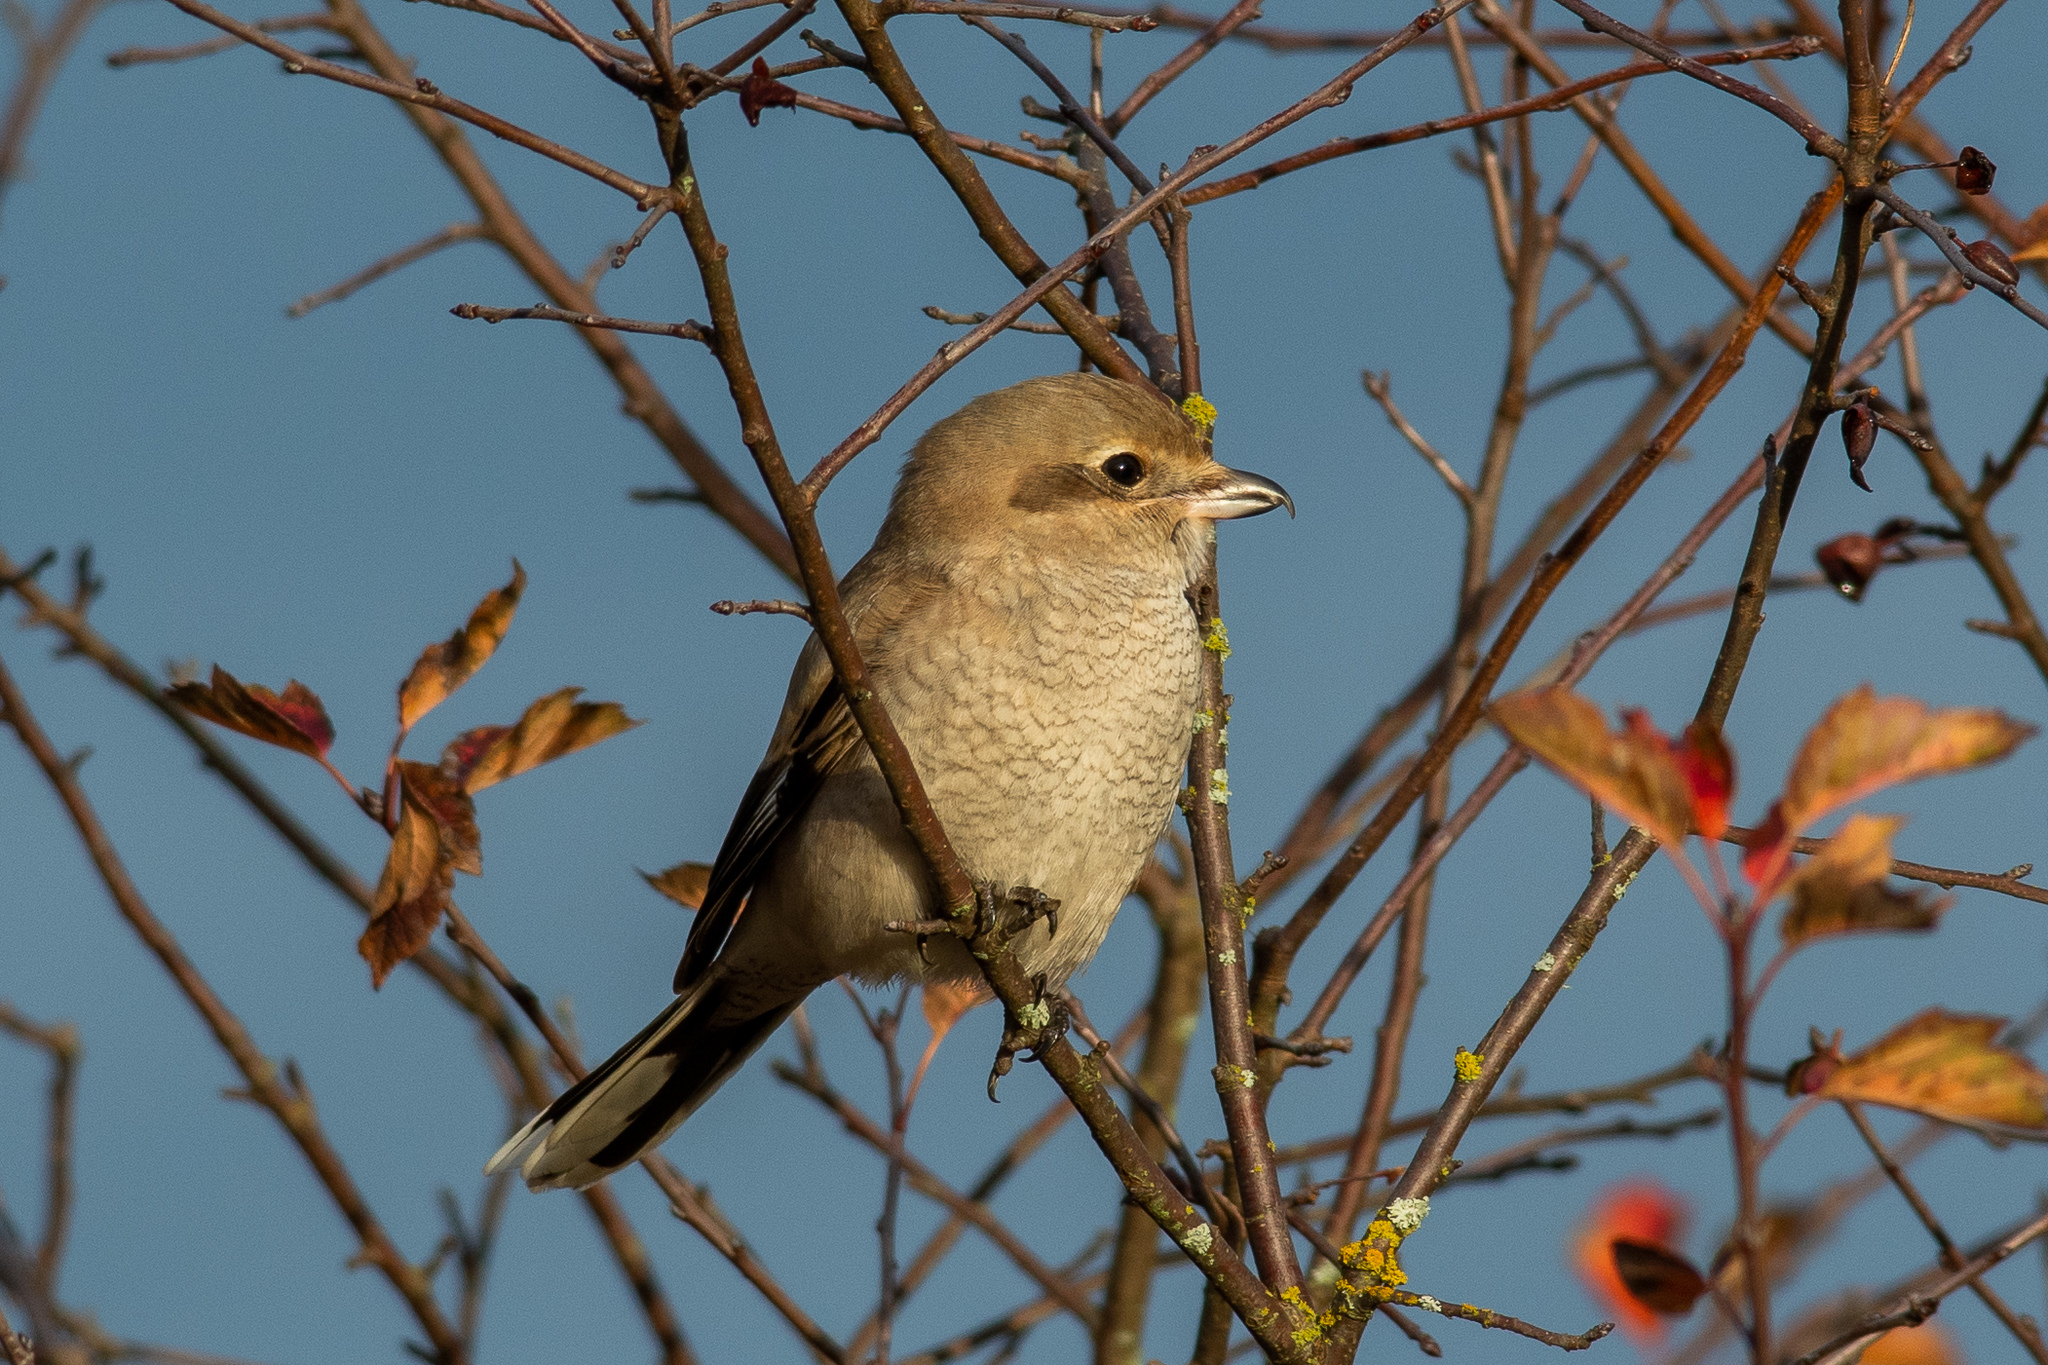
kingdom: Animalia
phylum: Chordata
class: Aves
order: Passeriformes
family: Laniidae
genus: Lanius
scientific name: Lanius borealis
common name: Northern shrike
